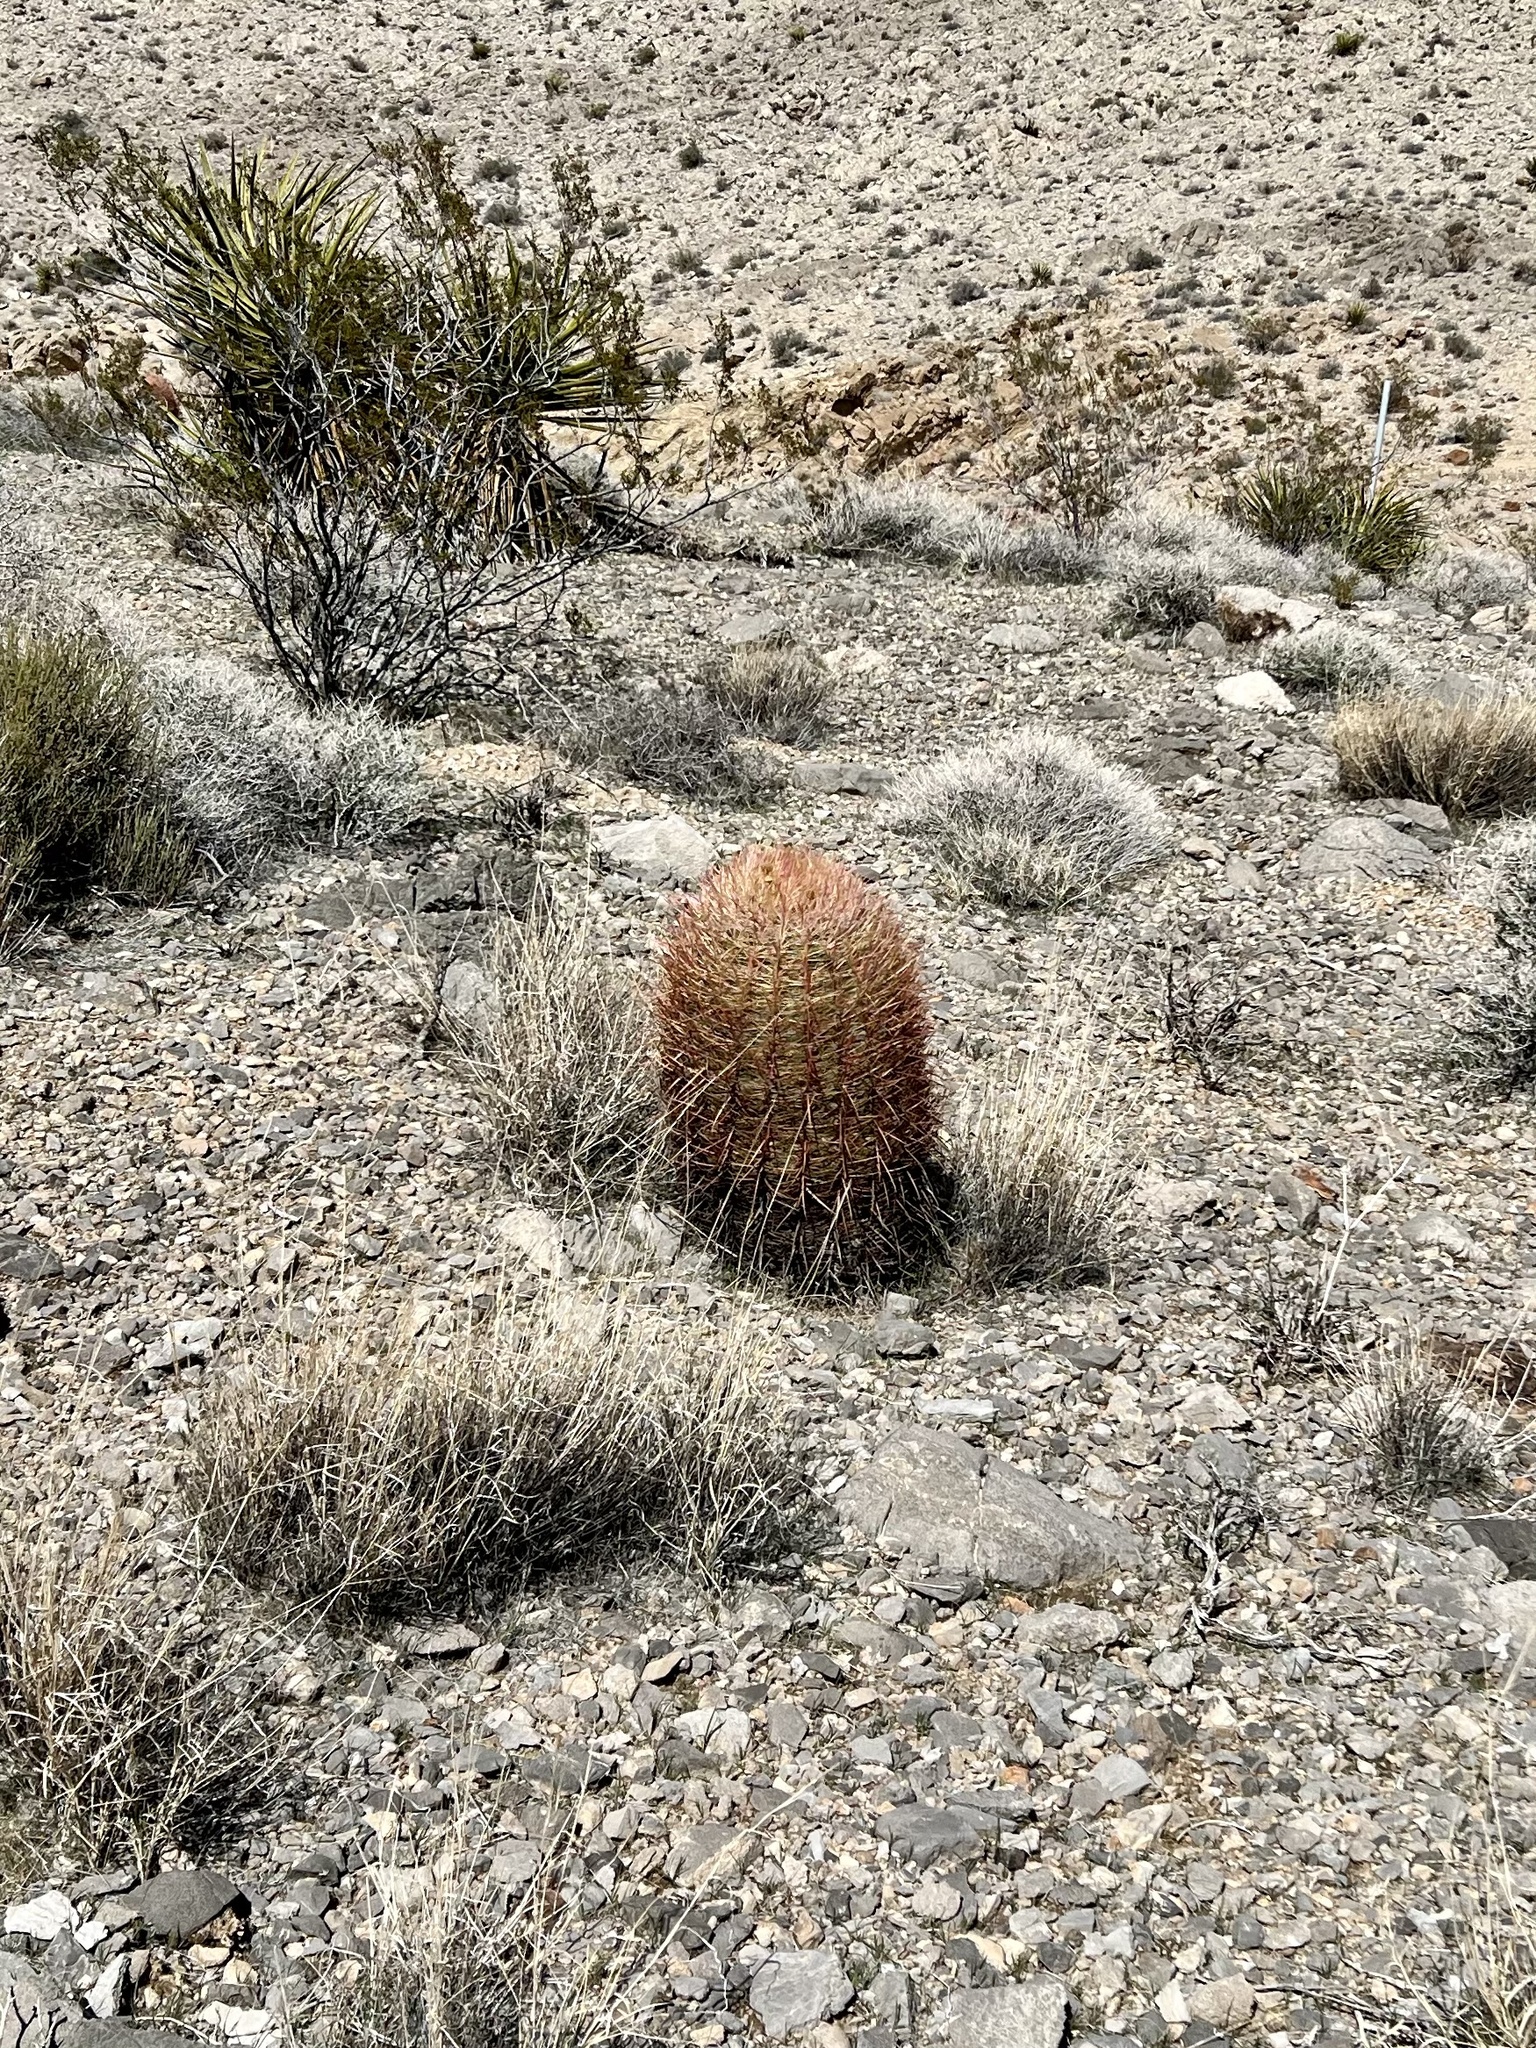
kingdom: Plantae
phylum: Tracheophyta
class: Magnoliopsida
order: Caryophyllales
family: Cactaceae
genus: Ferocactus
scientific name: Ferocactus cylindraceus
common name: California barrel cactus
